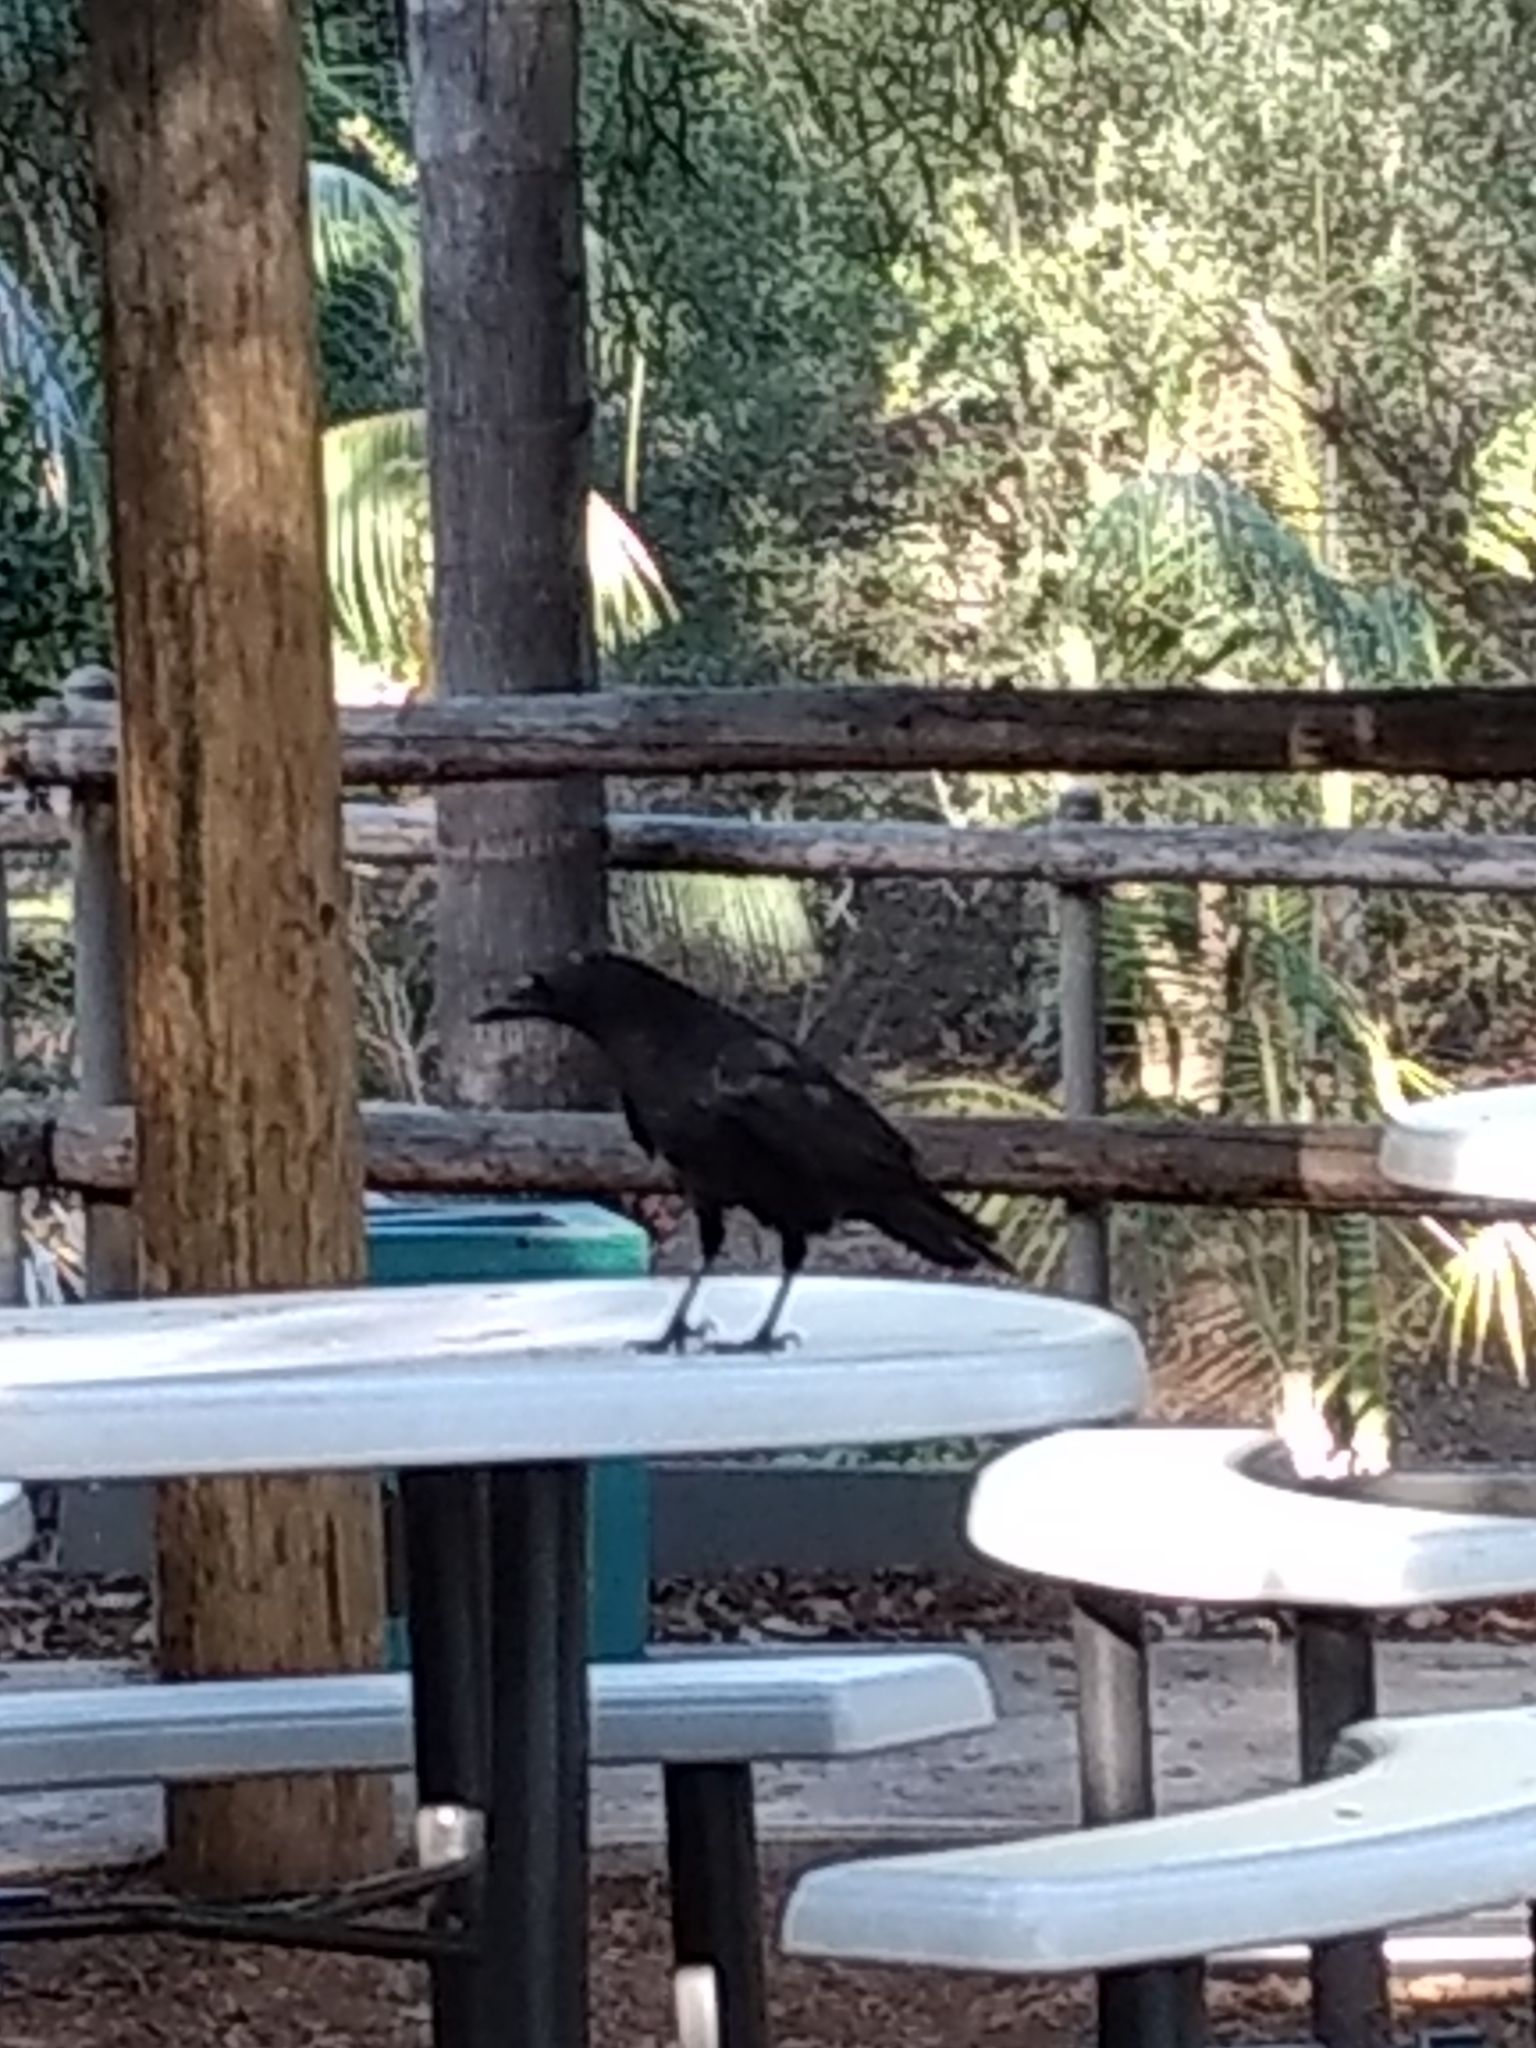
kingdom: Animalia
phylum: Chordata
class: Aves
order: Passeriformes
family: Corvidae
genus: Corvus
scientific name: Corvus brachyrhynchos
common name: American crow
